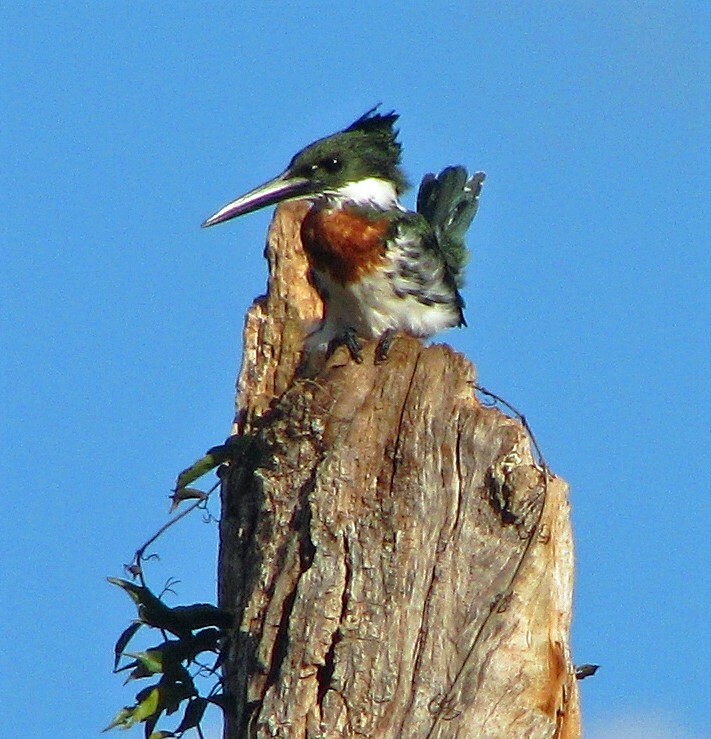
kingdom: Animalia
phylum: Chordata
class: Aves
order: Coraciiformes
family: Alcedinidae
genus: Chloroceryle
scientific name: Chloroceryle amazona
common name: Amazon kingfisher
